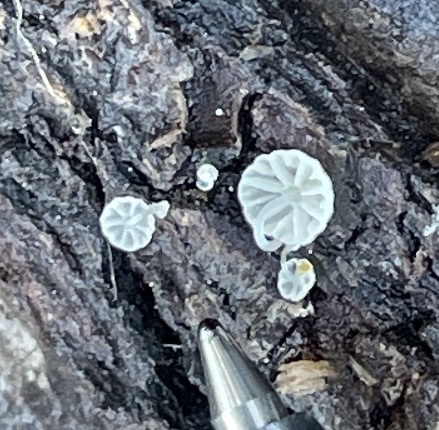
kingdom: Fungi
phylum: Basidiomycota
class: Agaricomycetes
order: Agaricales
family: Mycenaceae
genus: Mycena
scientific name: Mycena tenerrima
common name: Frosty bonnet
